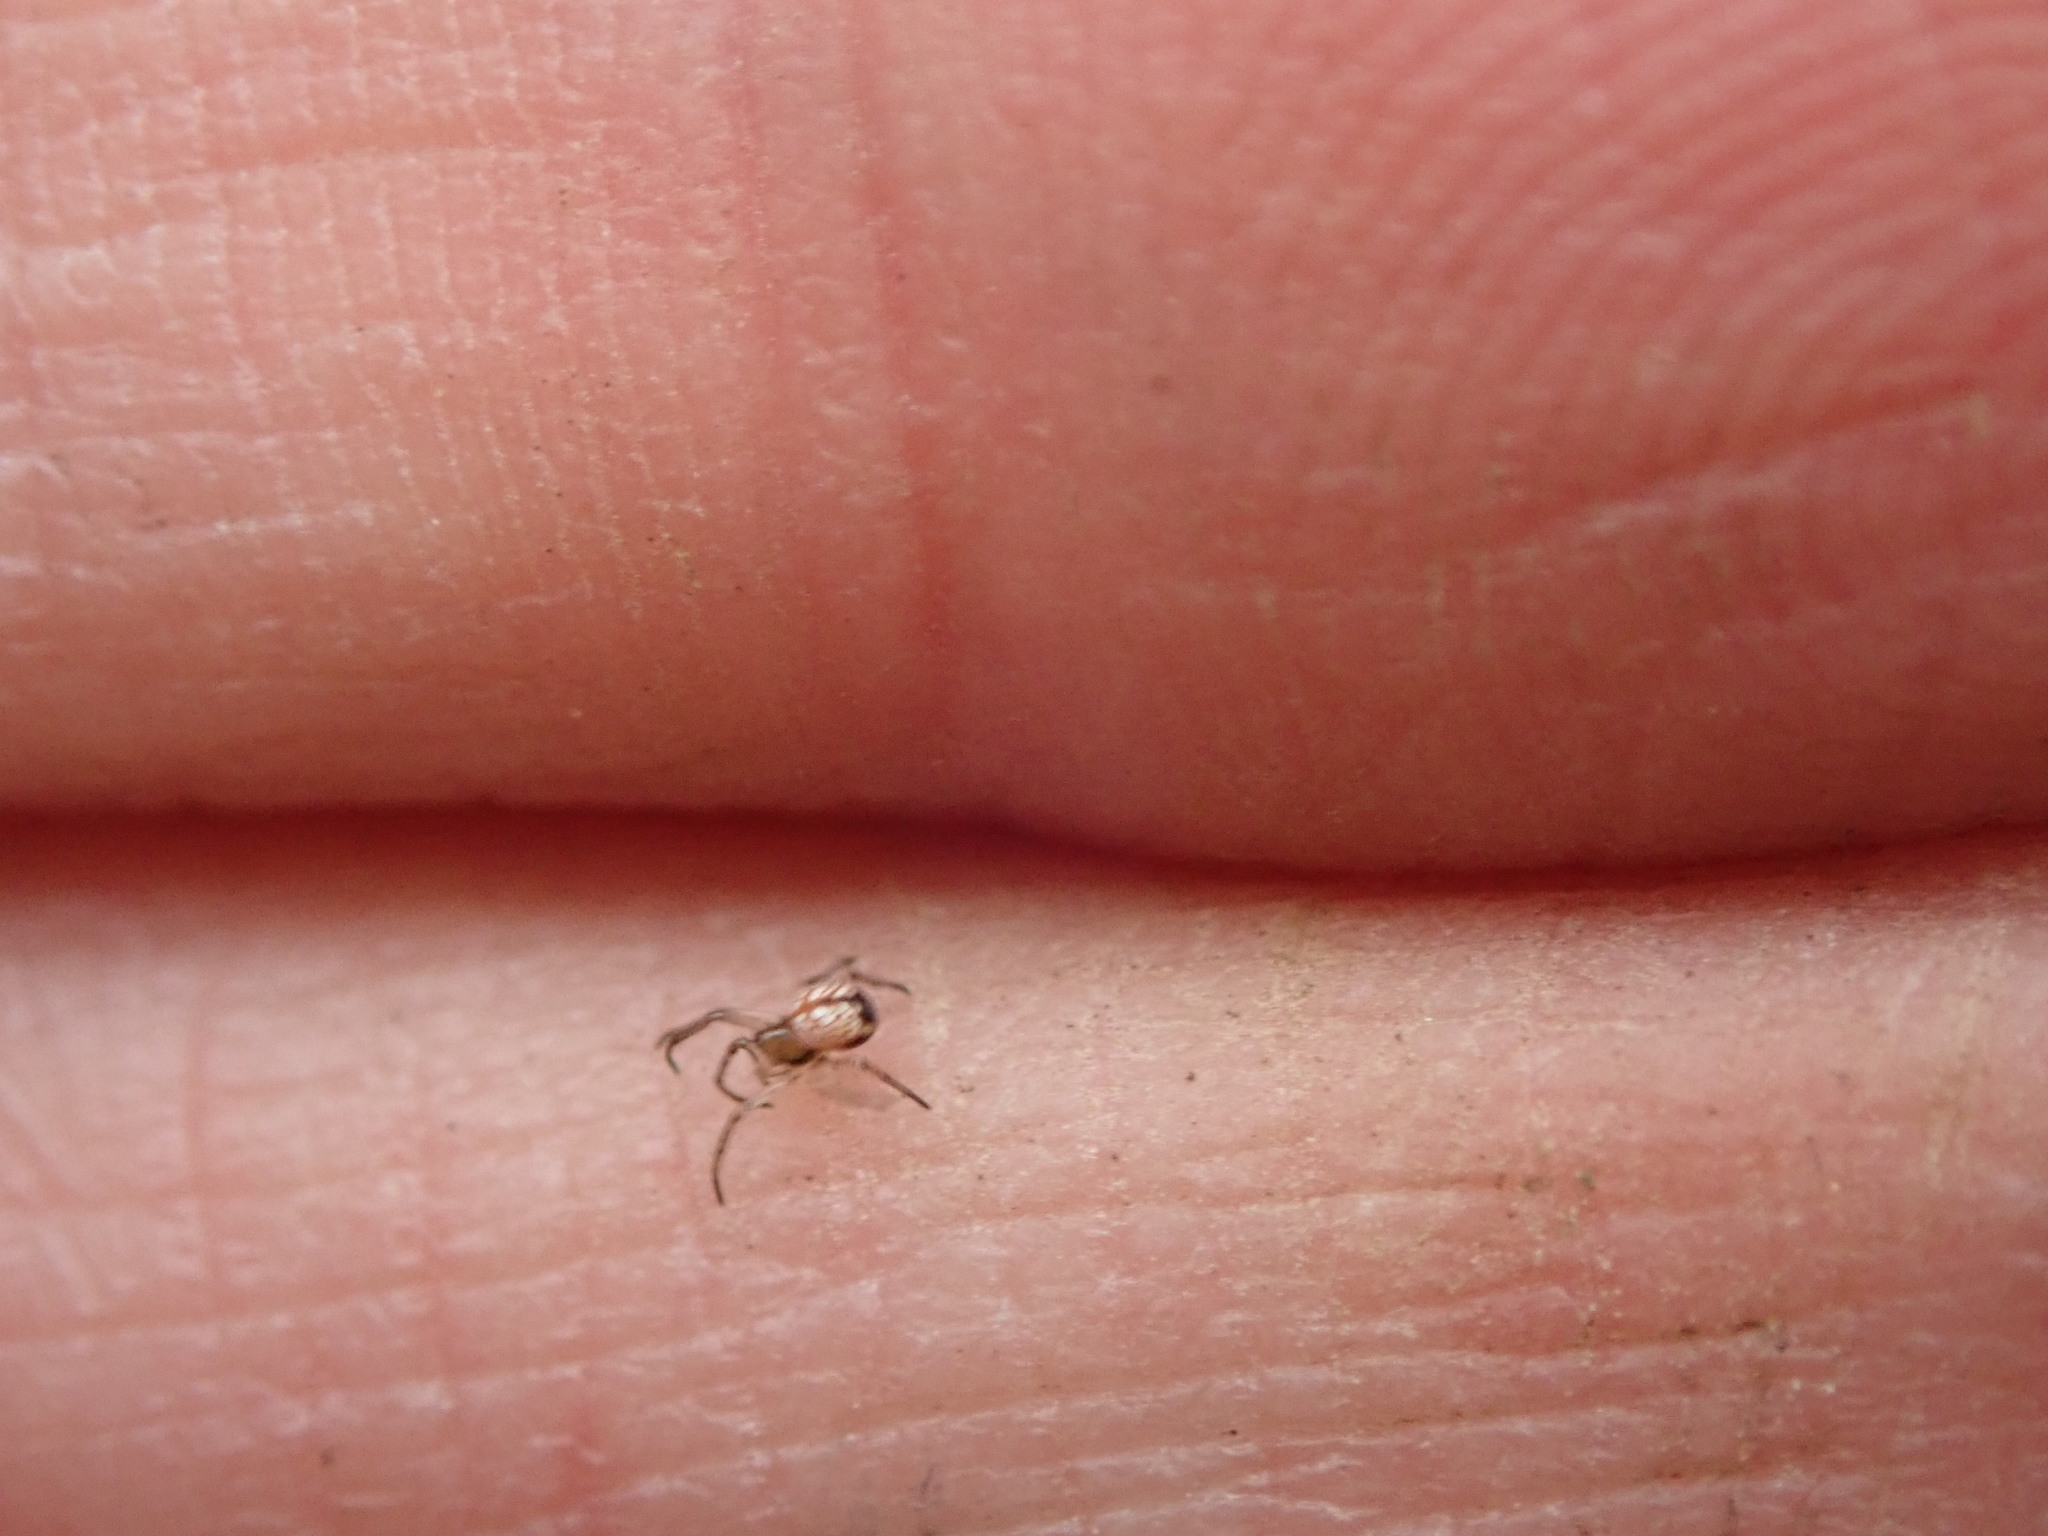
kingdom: Animalia
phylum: Arthropoda
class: Arachnida
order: Araneae
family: Tetragnathidae
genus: Leucauge
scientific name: Leucauge venusta
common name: Longjawed orb weavers
